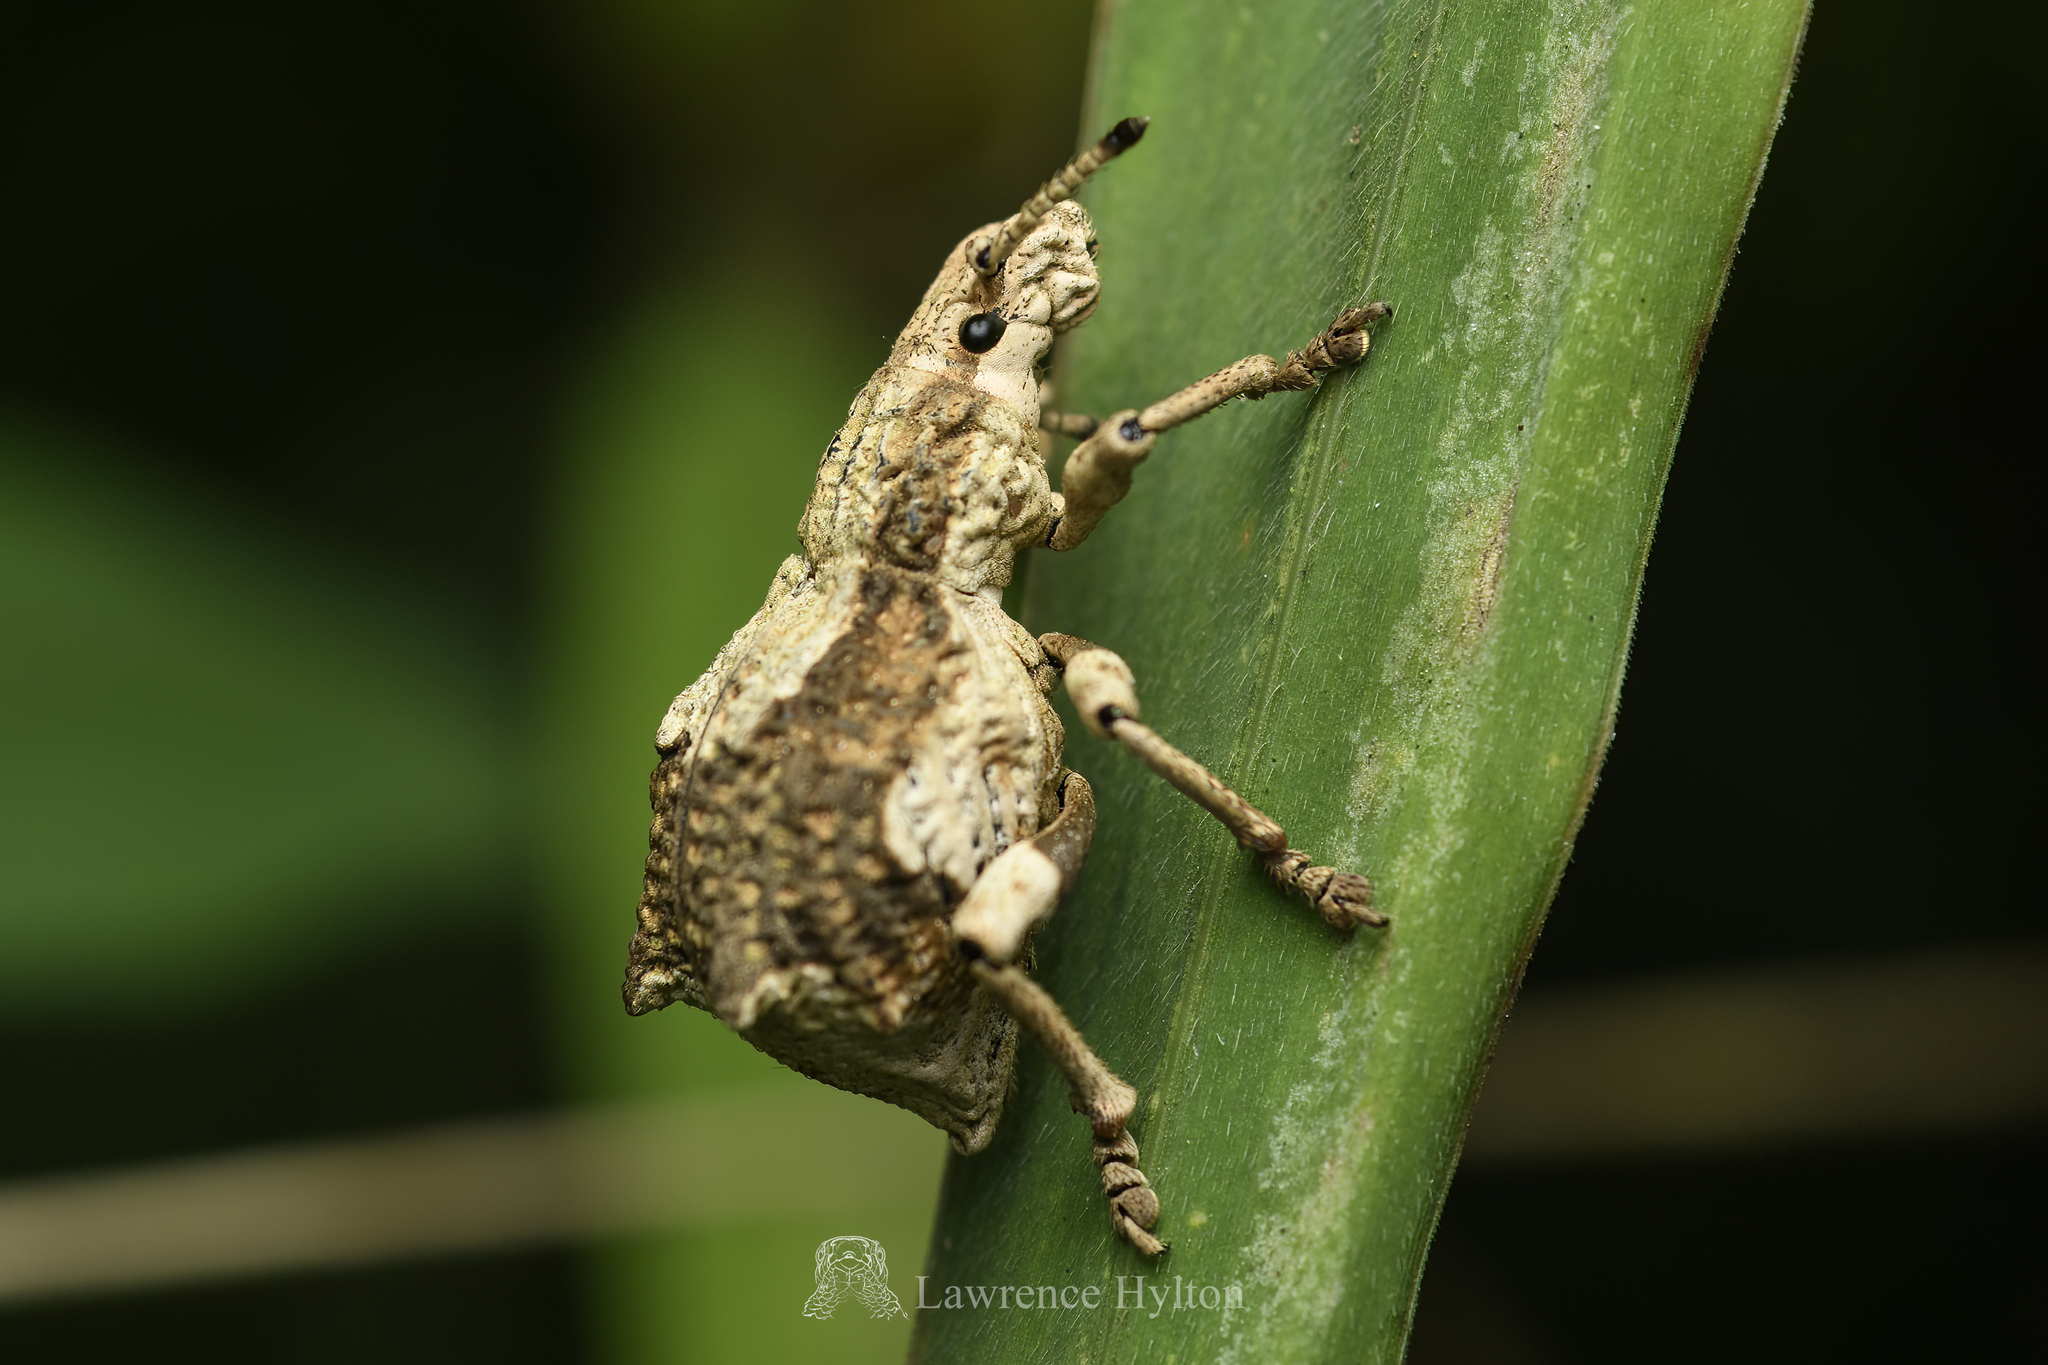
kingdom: Animalia
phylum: Arthropoda
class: Insecta
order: Coleoptera
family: Curculionidae
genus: Episomus
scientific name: Episomus
